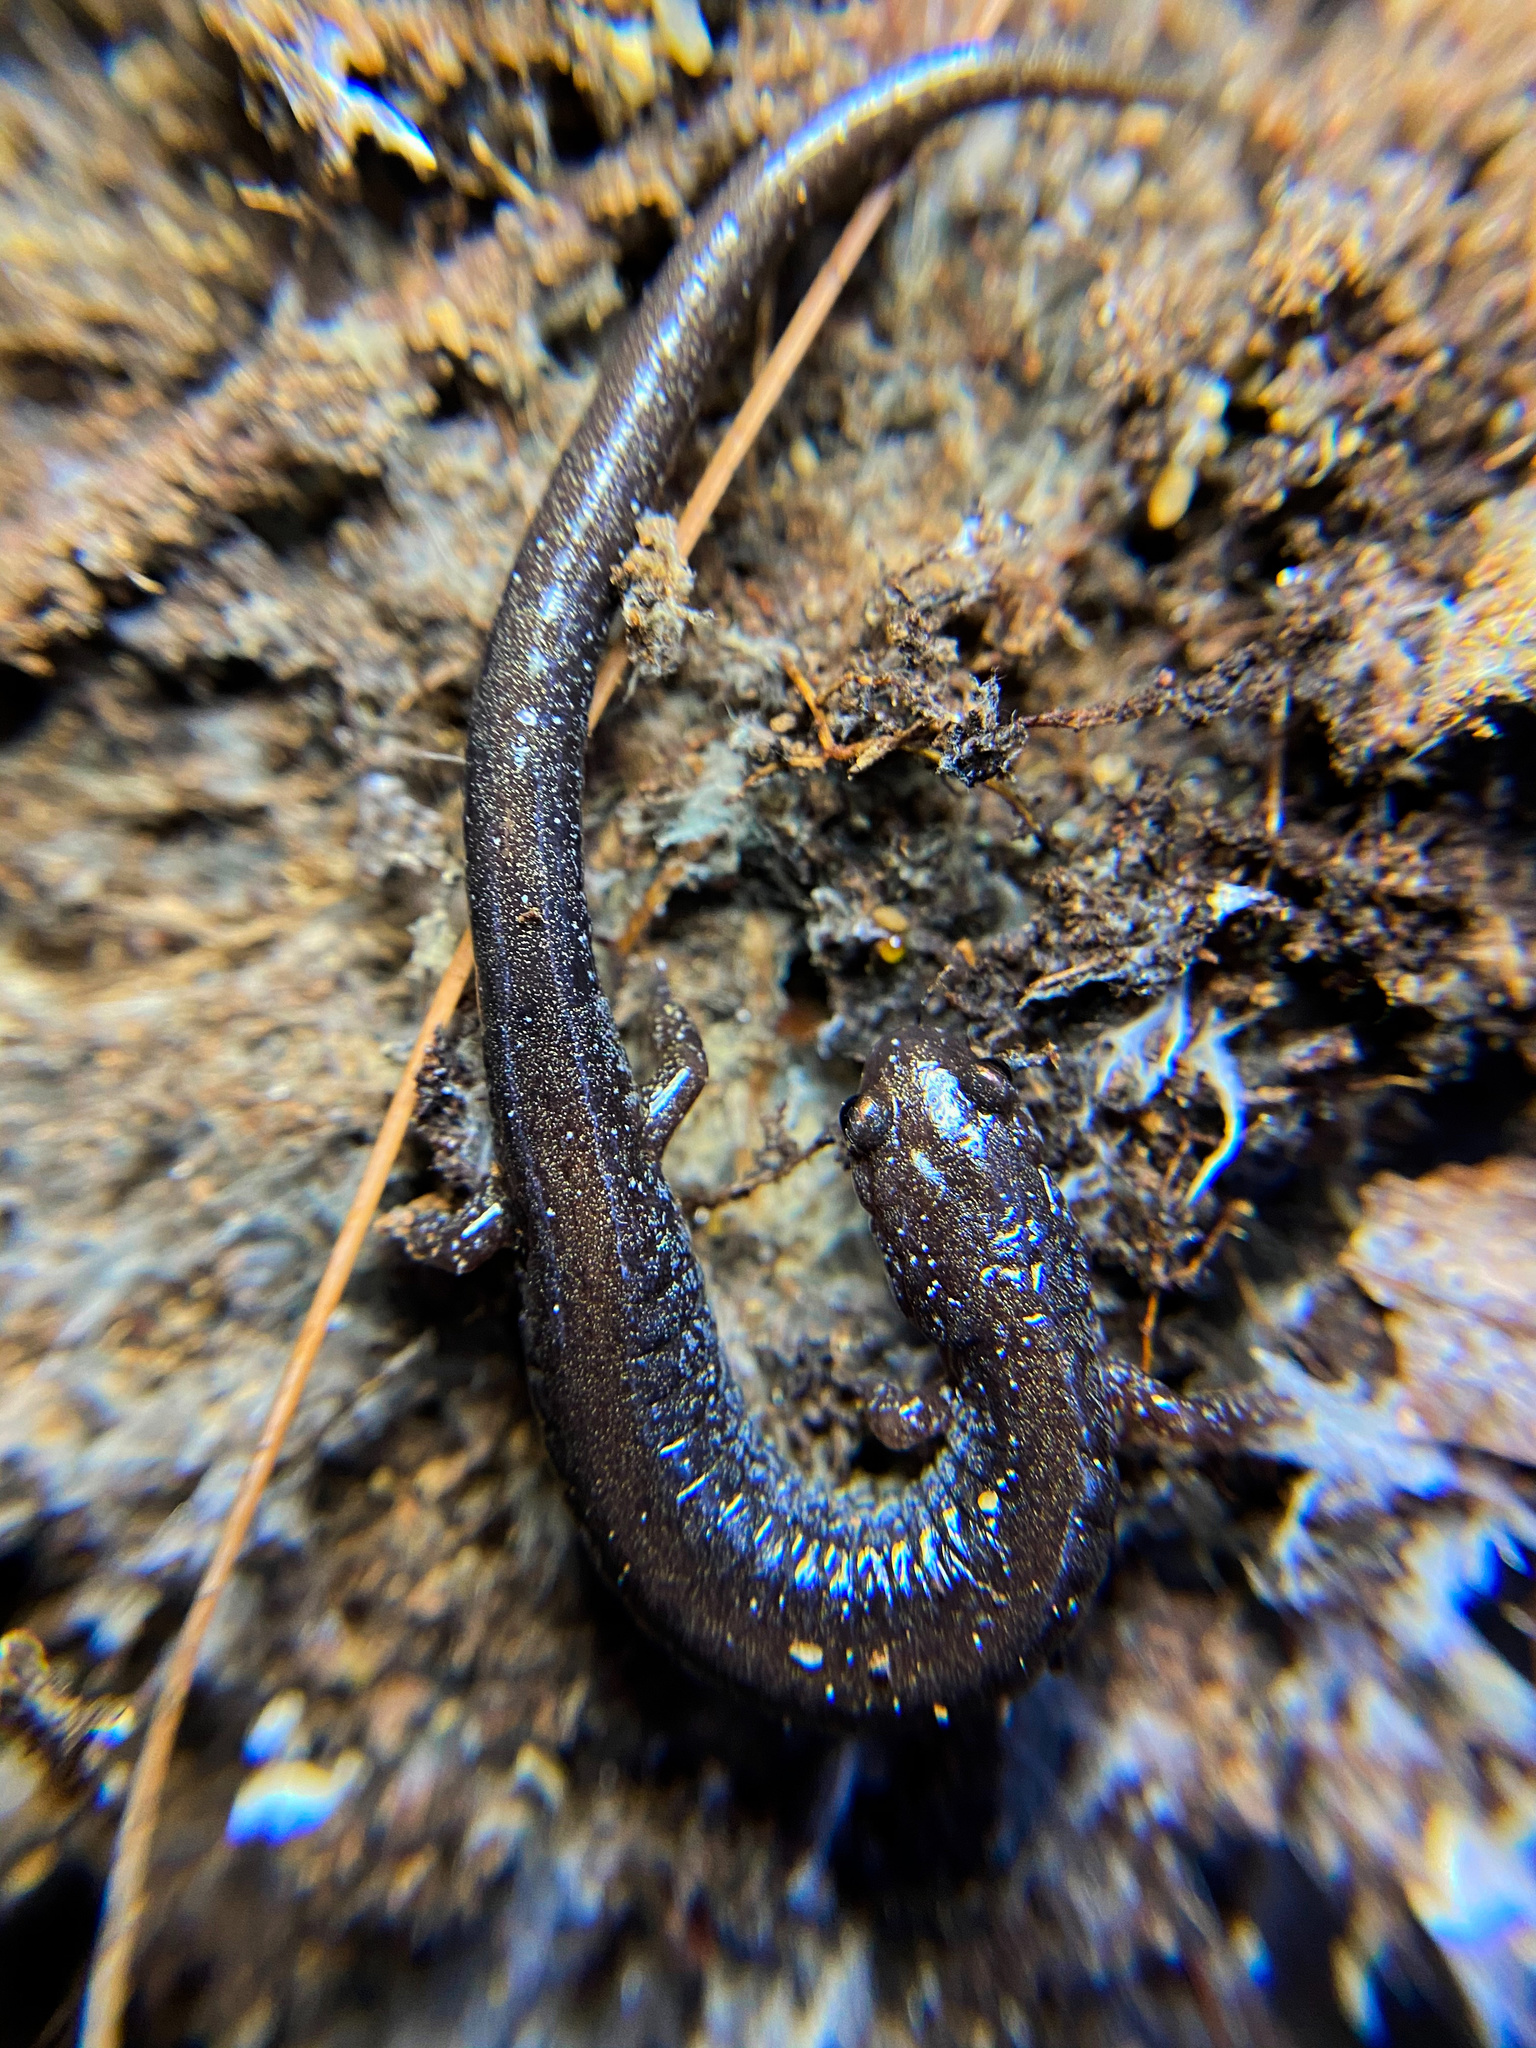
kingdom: Animalia
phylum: Chordata
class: Amphibia
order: Caudata
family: Plethodontidae
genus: Plethodon
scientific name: Plethodon cinereus
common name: Redback salamander
